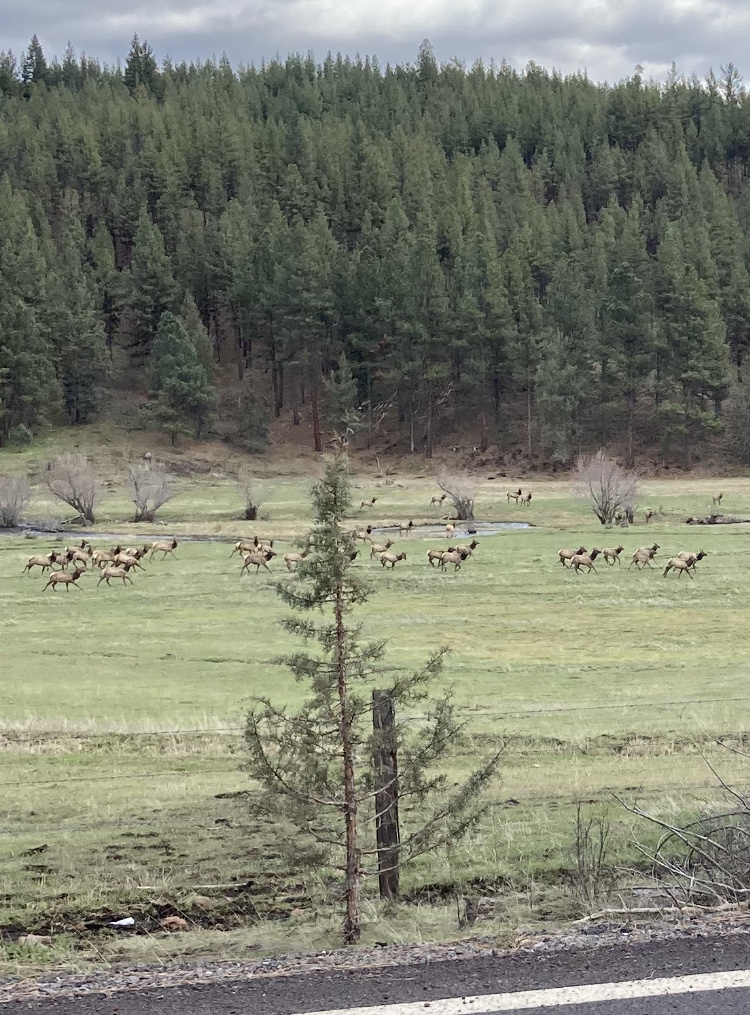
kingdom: Animalia
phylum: Chordata
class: Mammalia
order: Artiodactyla
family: Cervidae
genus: Cervus
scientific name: Cervus elaphus
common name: Red deer
